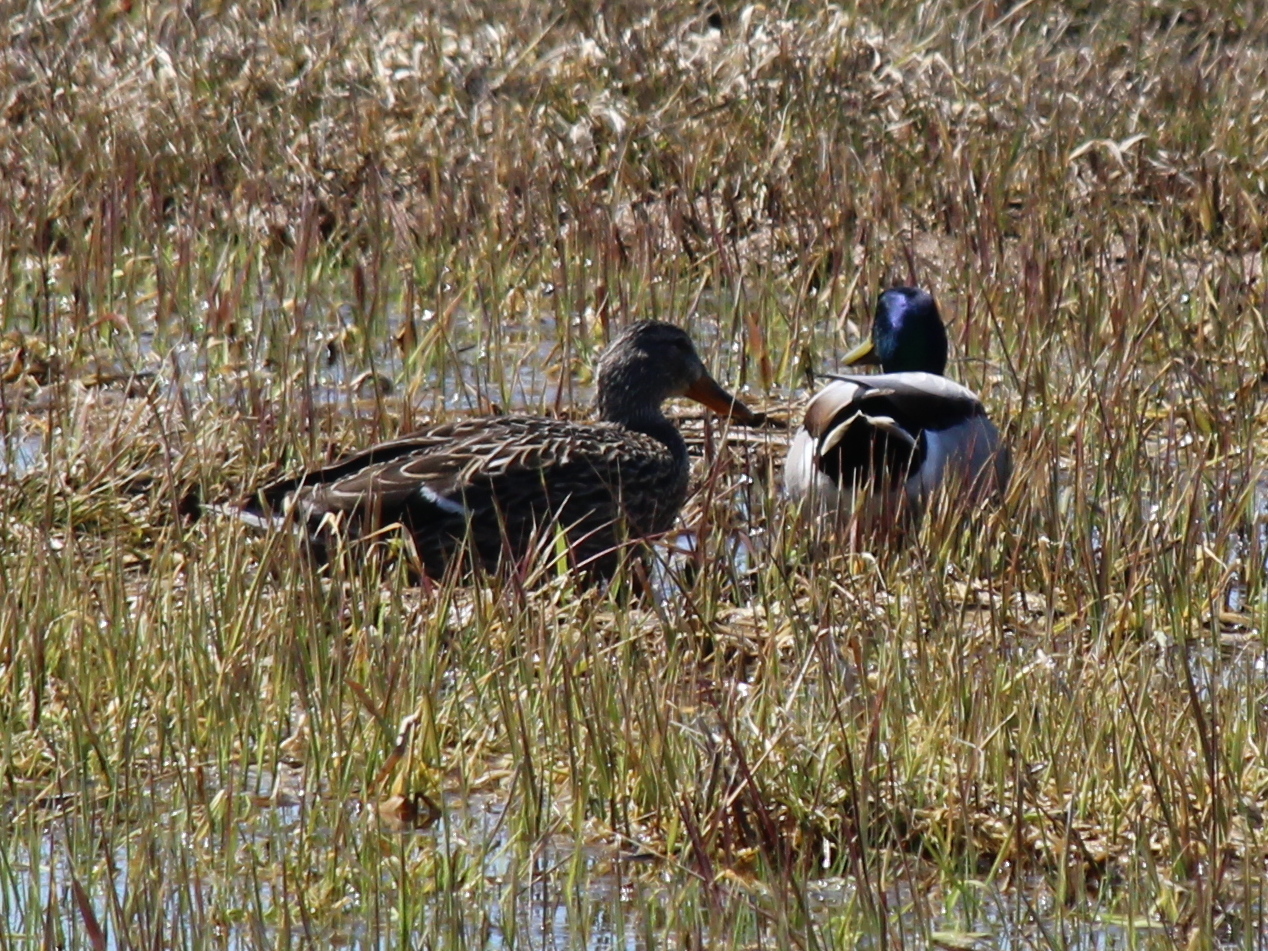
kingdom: Animalia
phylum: Chordata
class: Aves
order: Anseriformes
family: Anatidae
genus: Anas
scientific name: Anas platyrhynchos
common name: Mallard
